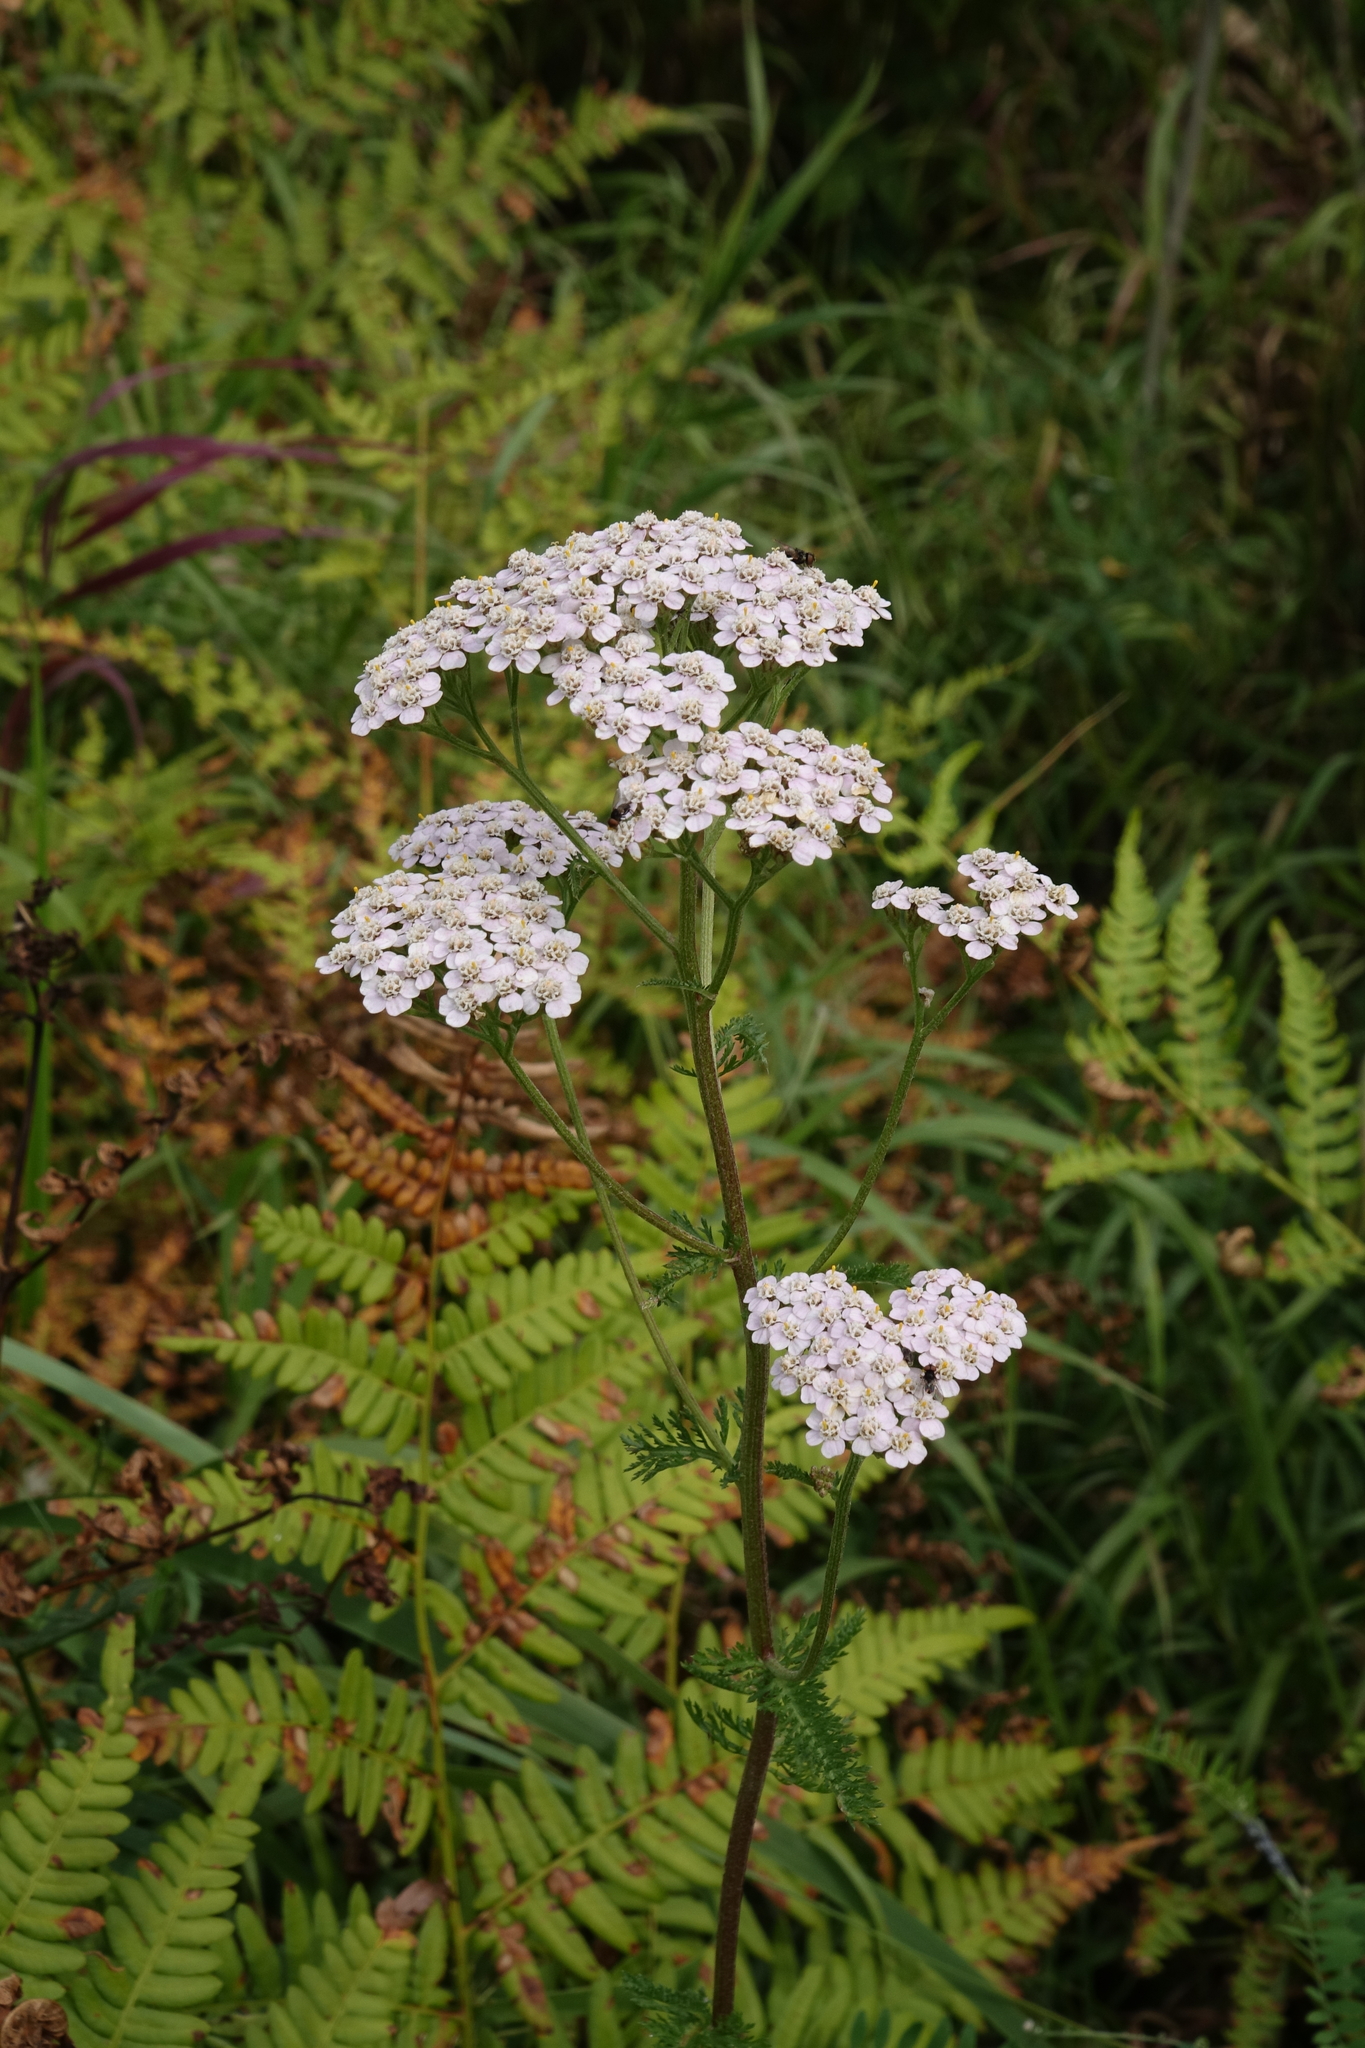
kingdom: Plantae
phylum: Tracheophyta
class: Magnoliopsida
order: Asterales
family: Asteraceae
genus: Achillea
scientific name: Achillea millefolium
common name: Yarrow
